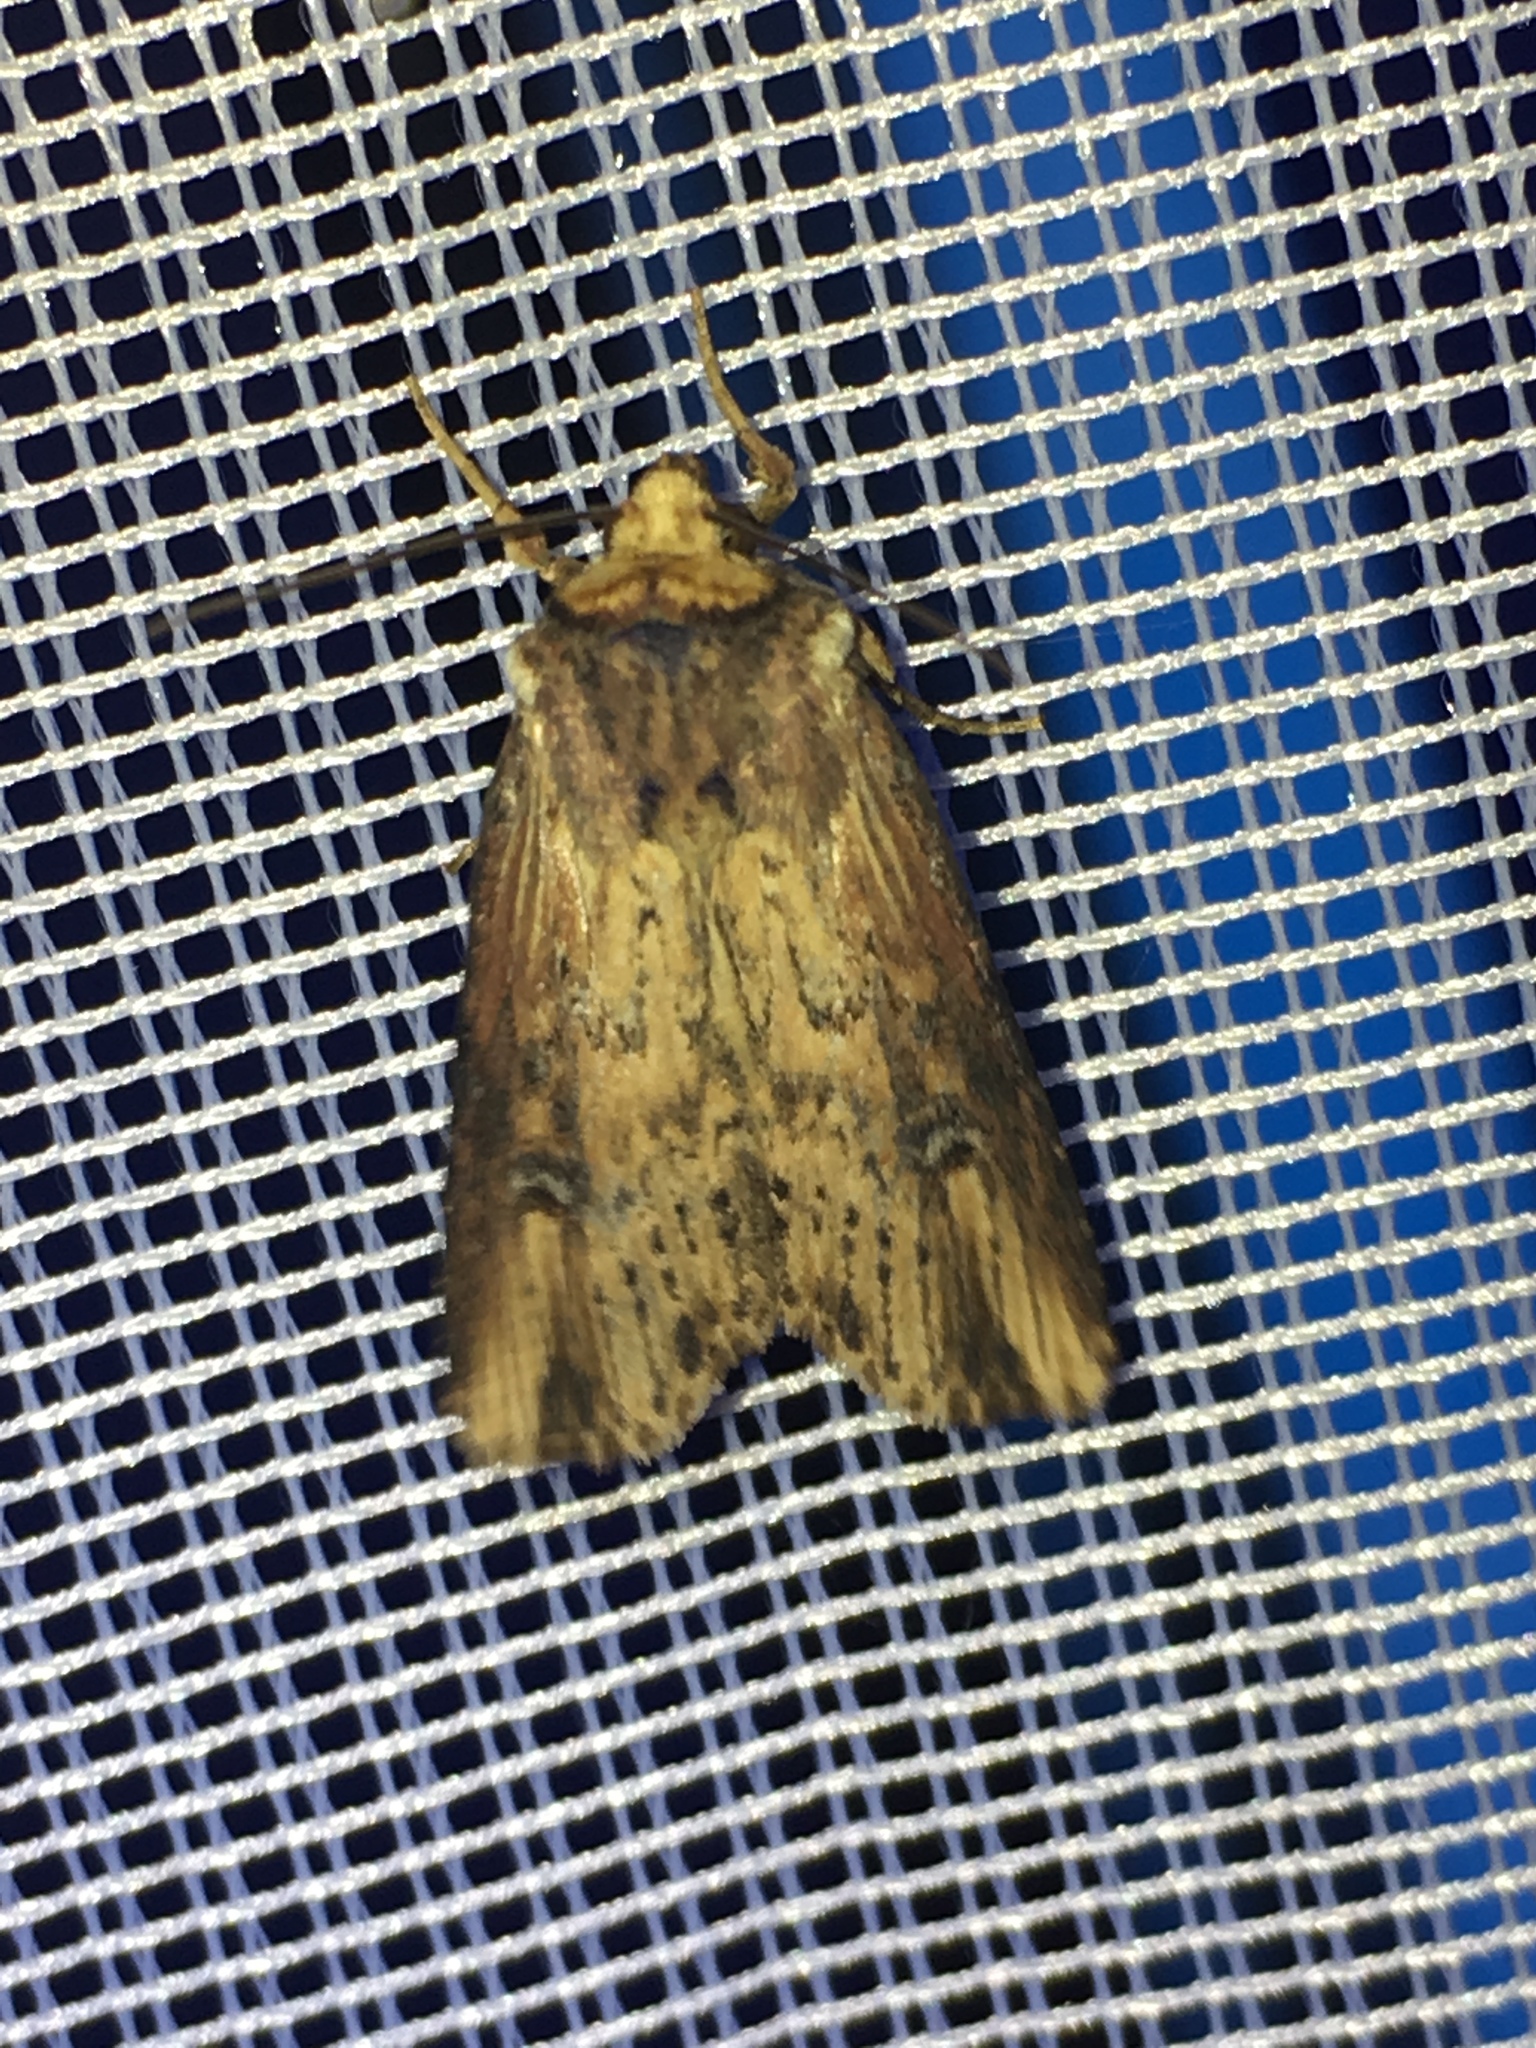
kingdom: Animalia
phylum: Arthropoda
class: Insecta
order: Lepidoptera
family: Noctuidae
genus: Axylia
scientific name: Axylia putris
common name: Flame
